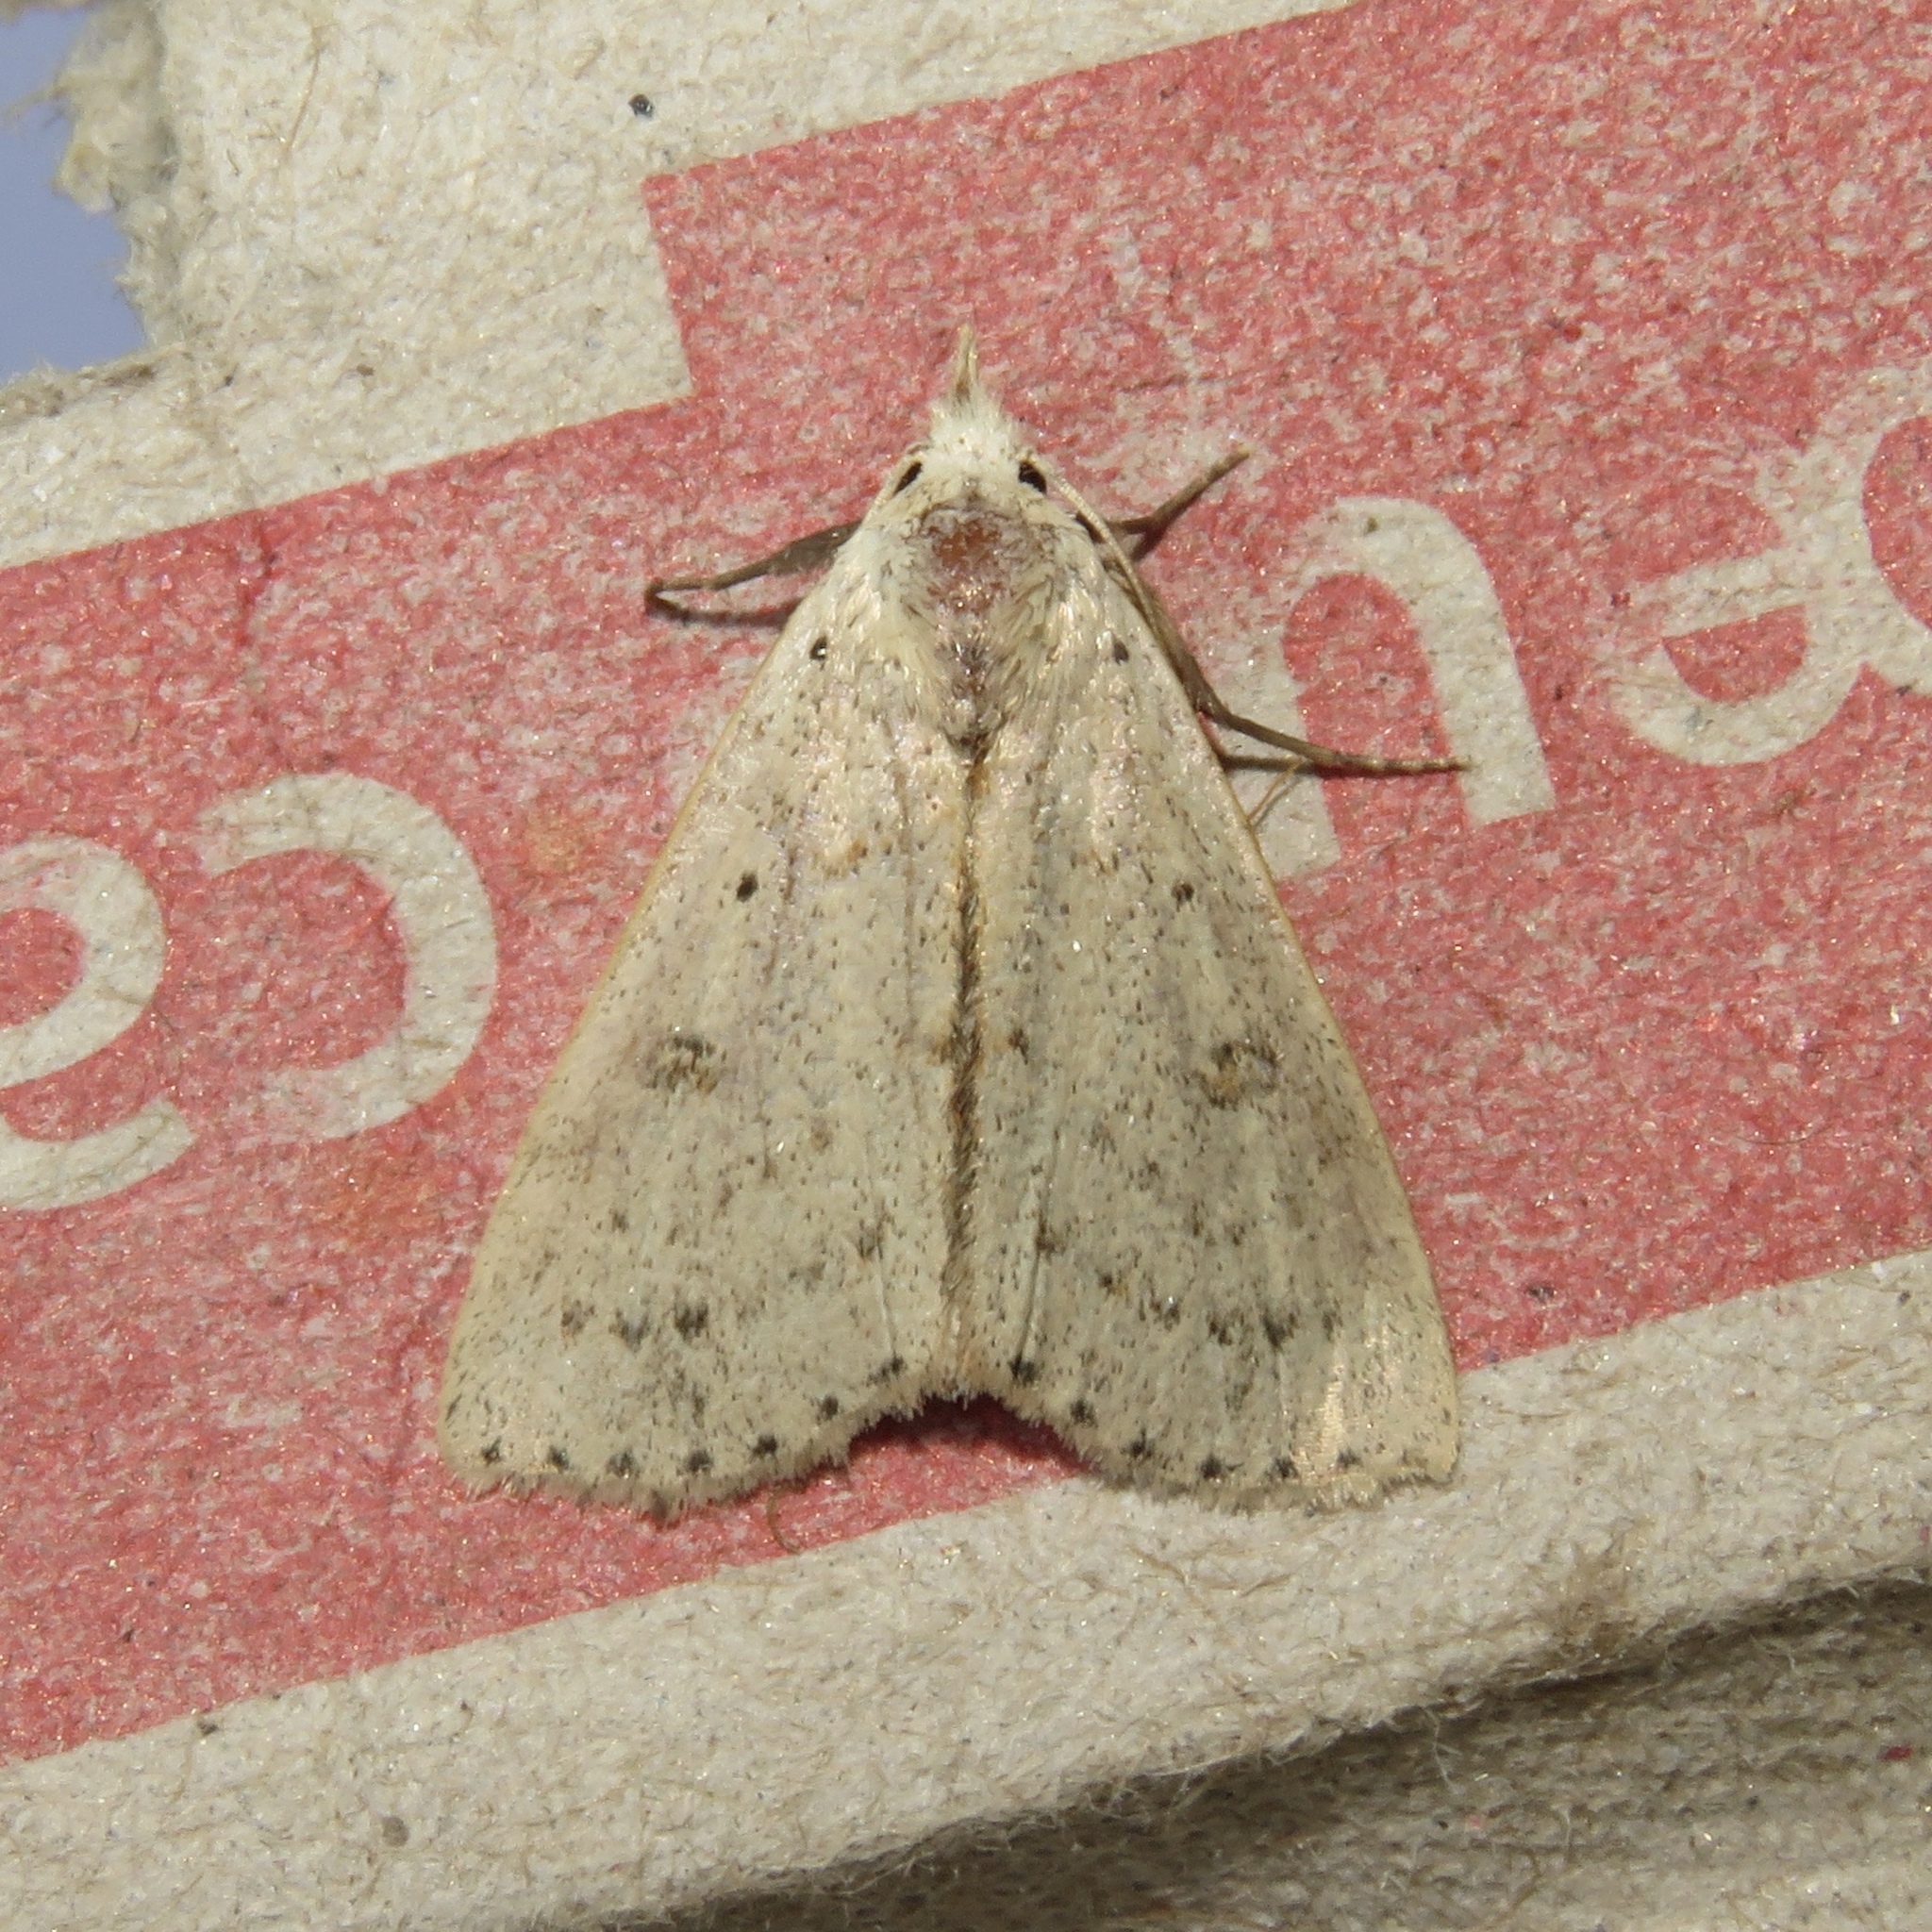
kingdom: Animalia
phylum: Arthropoda
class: Insecta
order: Lepidoptera
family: Erebidae
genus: Scolecocampa
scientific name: Scolecocampa liburna
